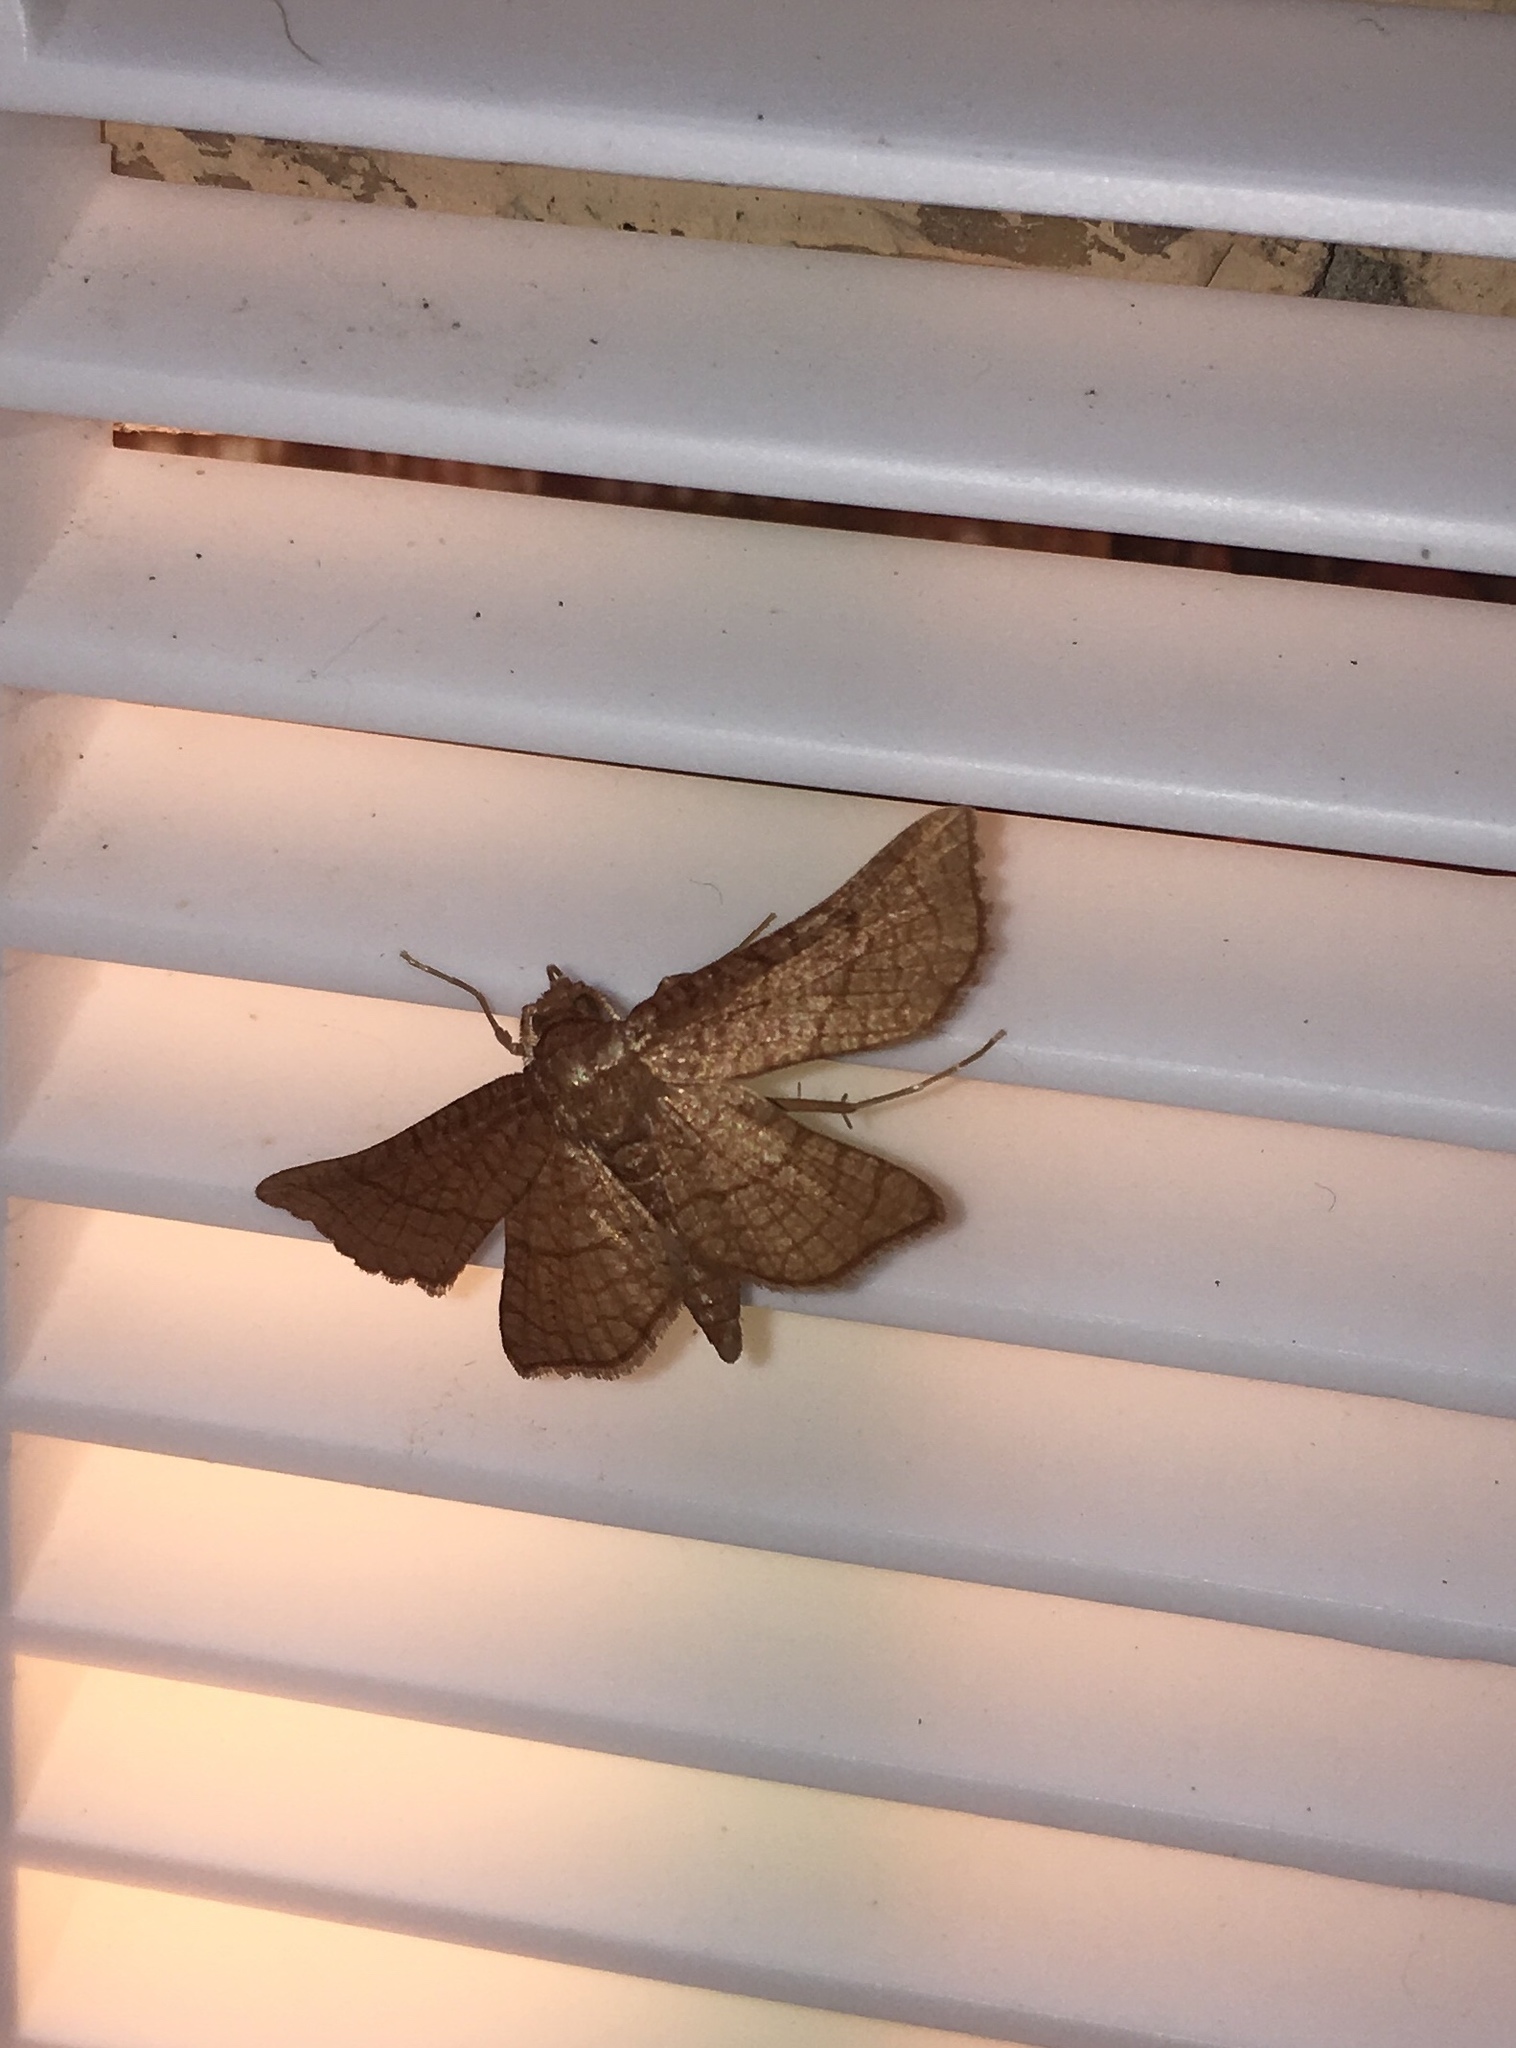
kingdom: Animalia
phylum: Arthropoda
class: Insecta
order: Lepidoptera
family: Thyrididae
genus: Hexeris
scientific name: Hexeris enhydris
